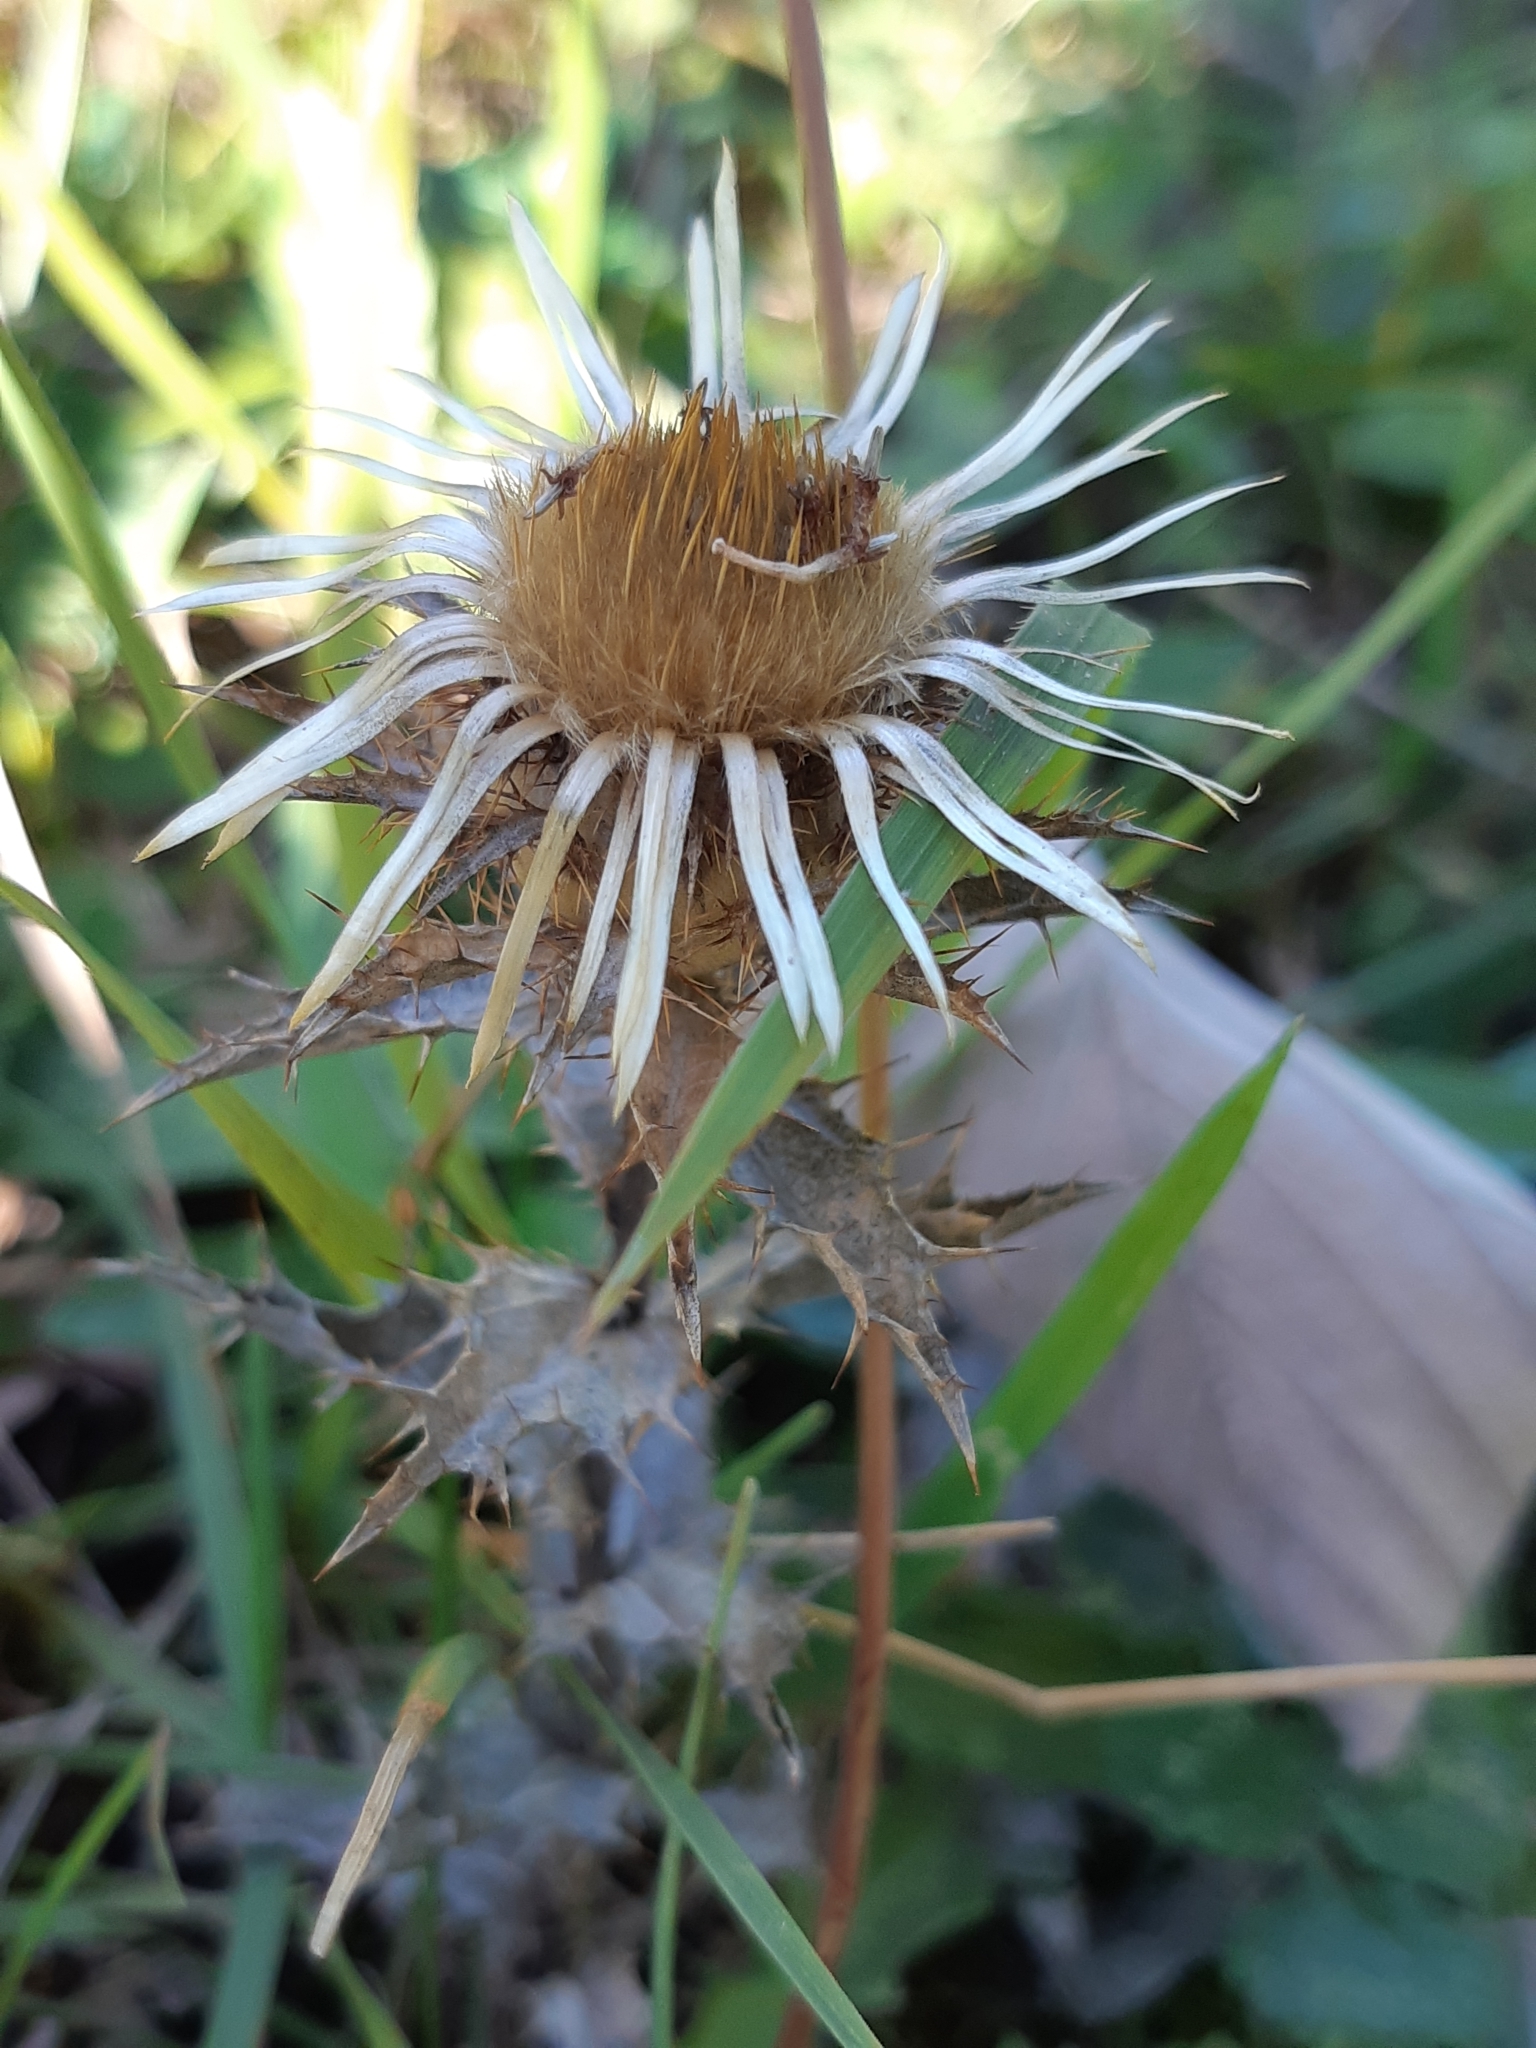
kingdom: Plantae
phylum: Tracheophyta
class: Magnoliopsida
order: Asterales
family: Asteraceae
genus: Carlina
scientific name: Carlina vulgaris
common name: Carline thistle
